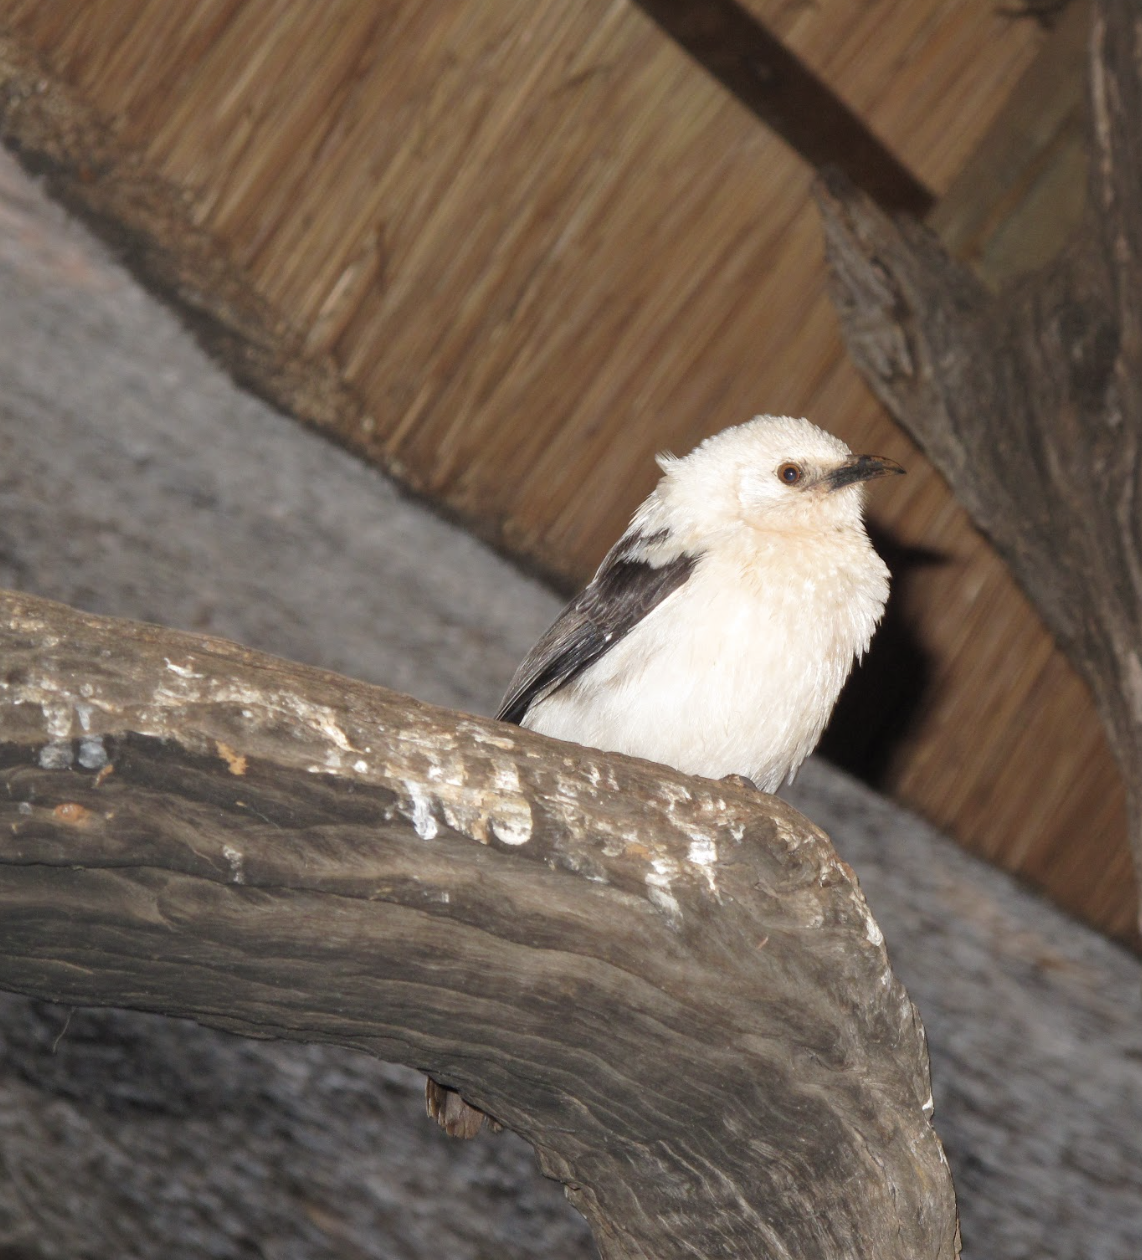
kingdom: Animalia
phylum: Chordata
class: Aves
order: Passeriformes
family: Leiothrichidae
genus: Turdoides
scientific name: Turdoides bicolor
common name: Southern pied babbler
